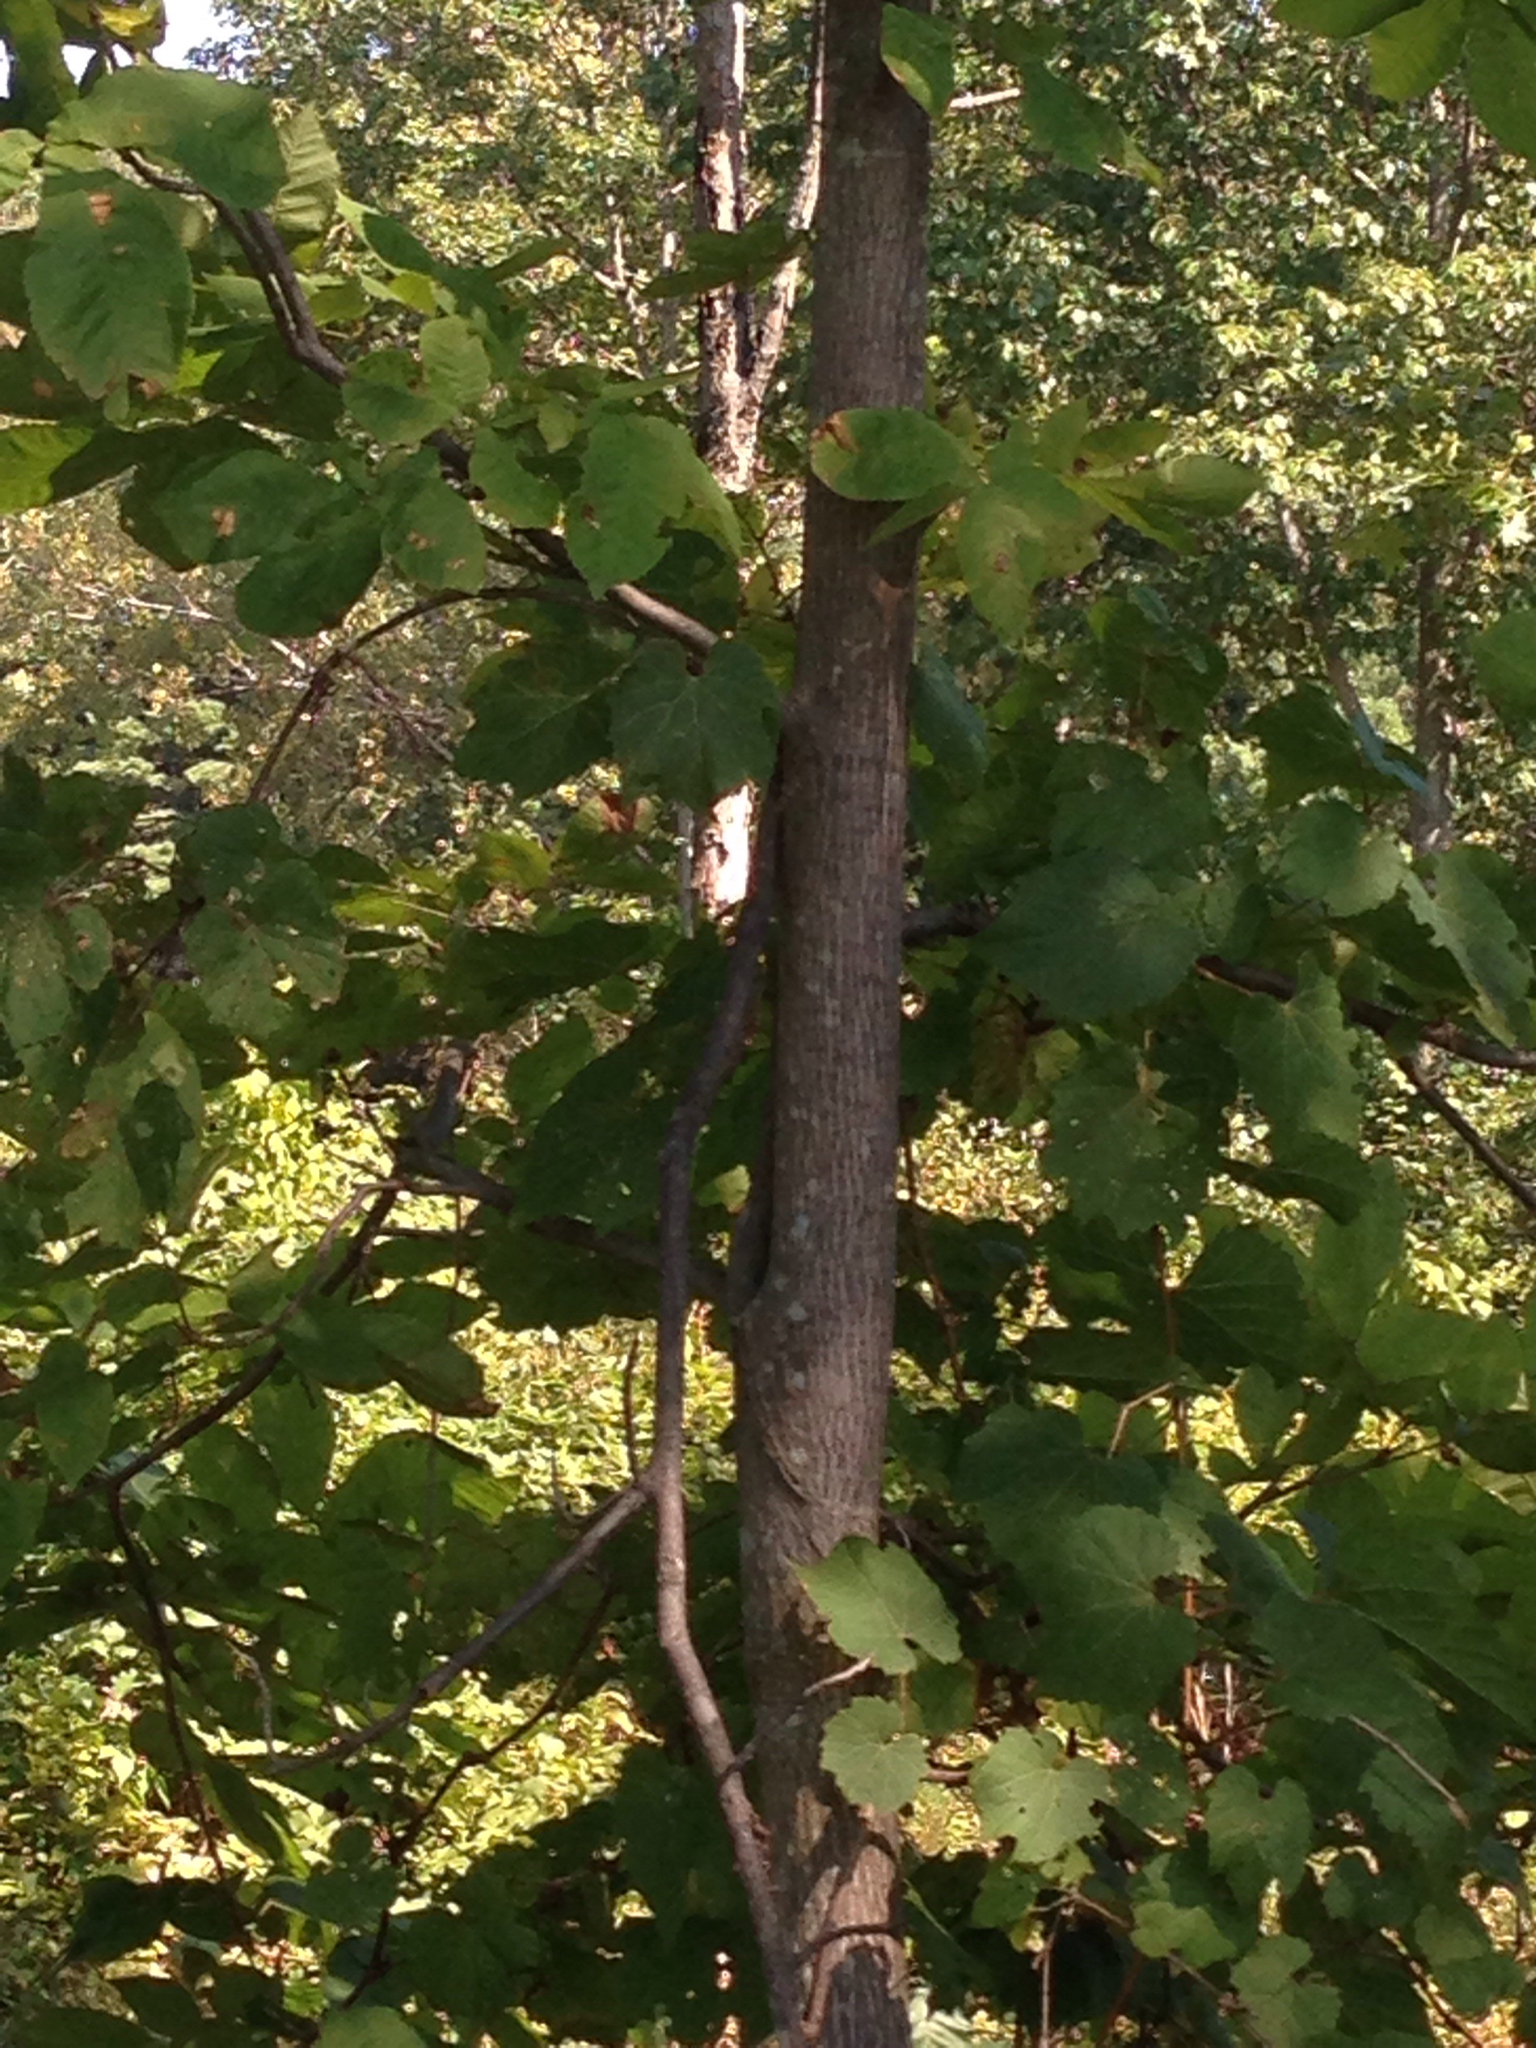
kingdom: Plantae
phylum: Tracheophyta
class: Magnoliopsida
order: Fagales
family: Juglandaceae
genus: Carya
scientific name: Carya cordiformis
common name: Bitternut hickory
